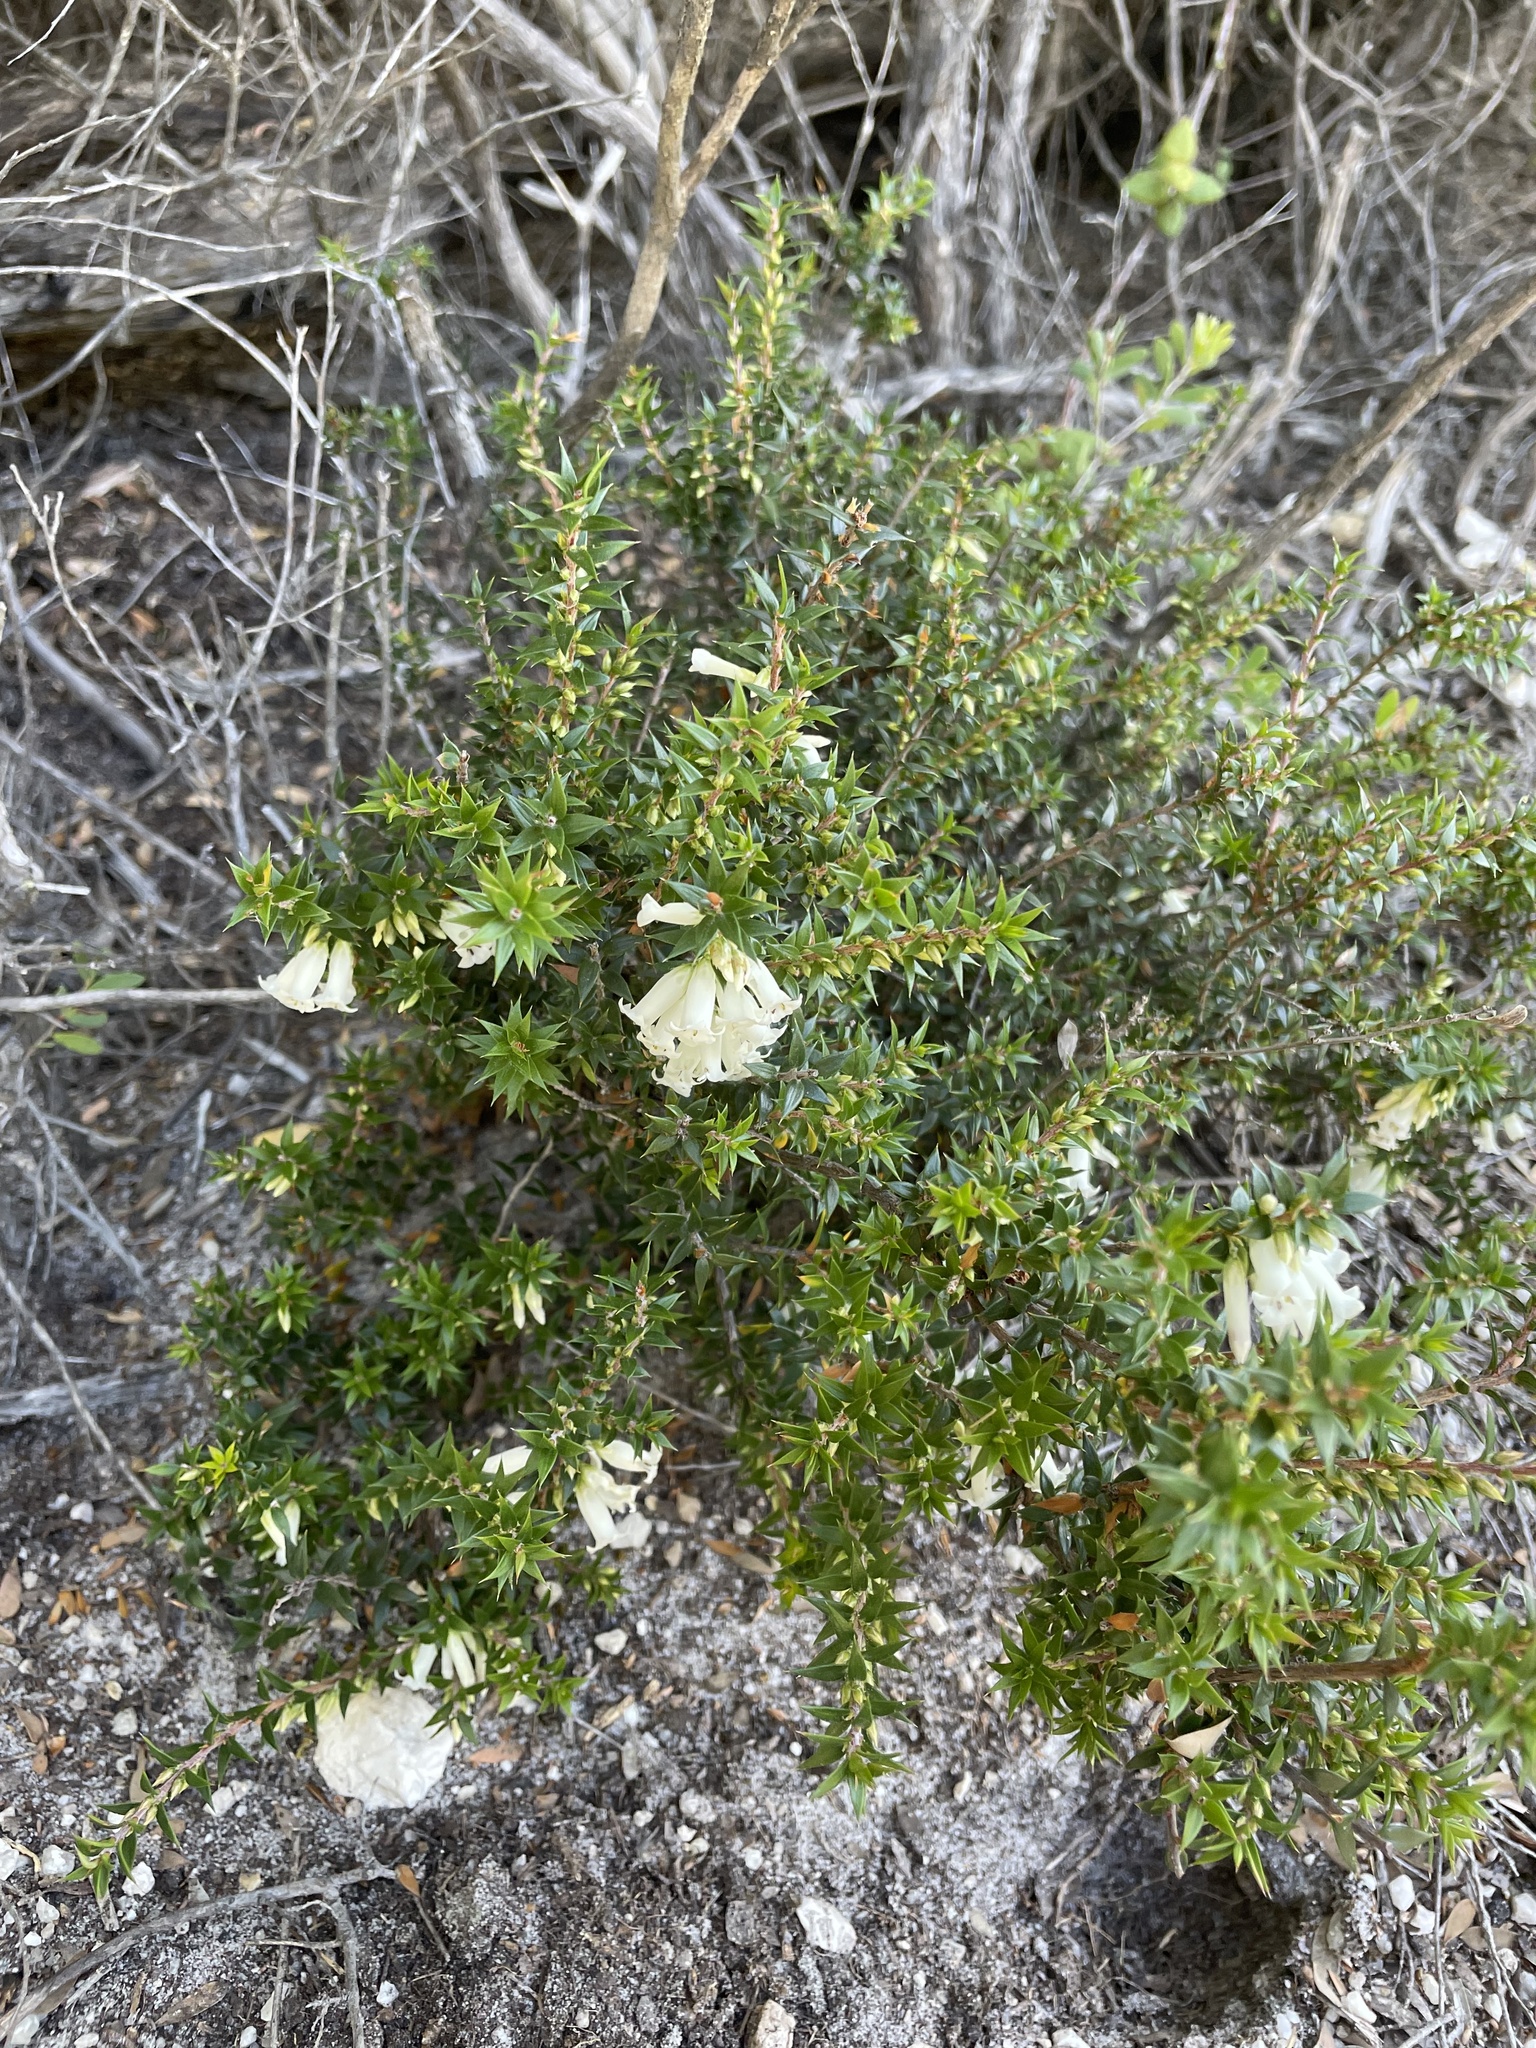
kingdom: Plantae
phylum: Tracheophyta
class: Magnoliopsida
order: Ericales
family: Ericaceae
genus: Epacris
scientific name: Epacris impressa
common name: Common-heath
